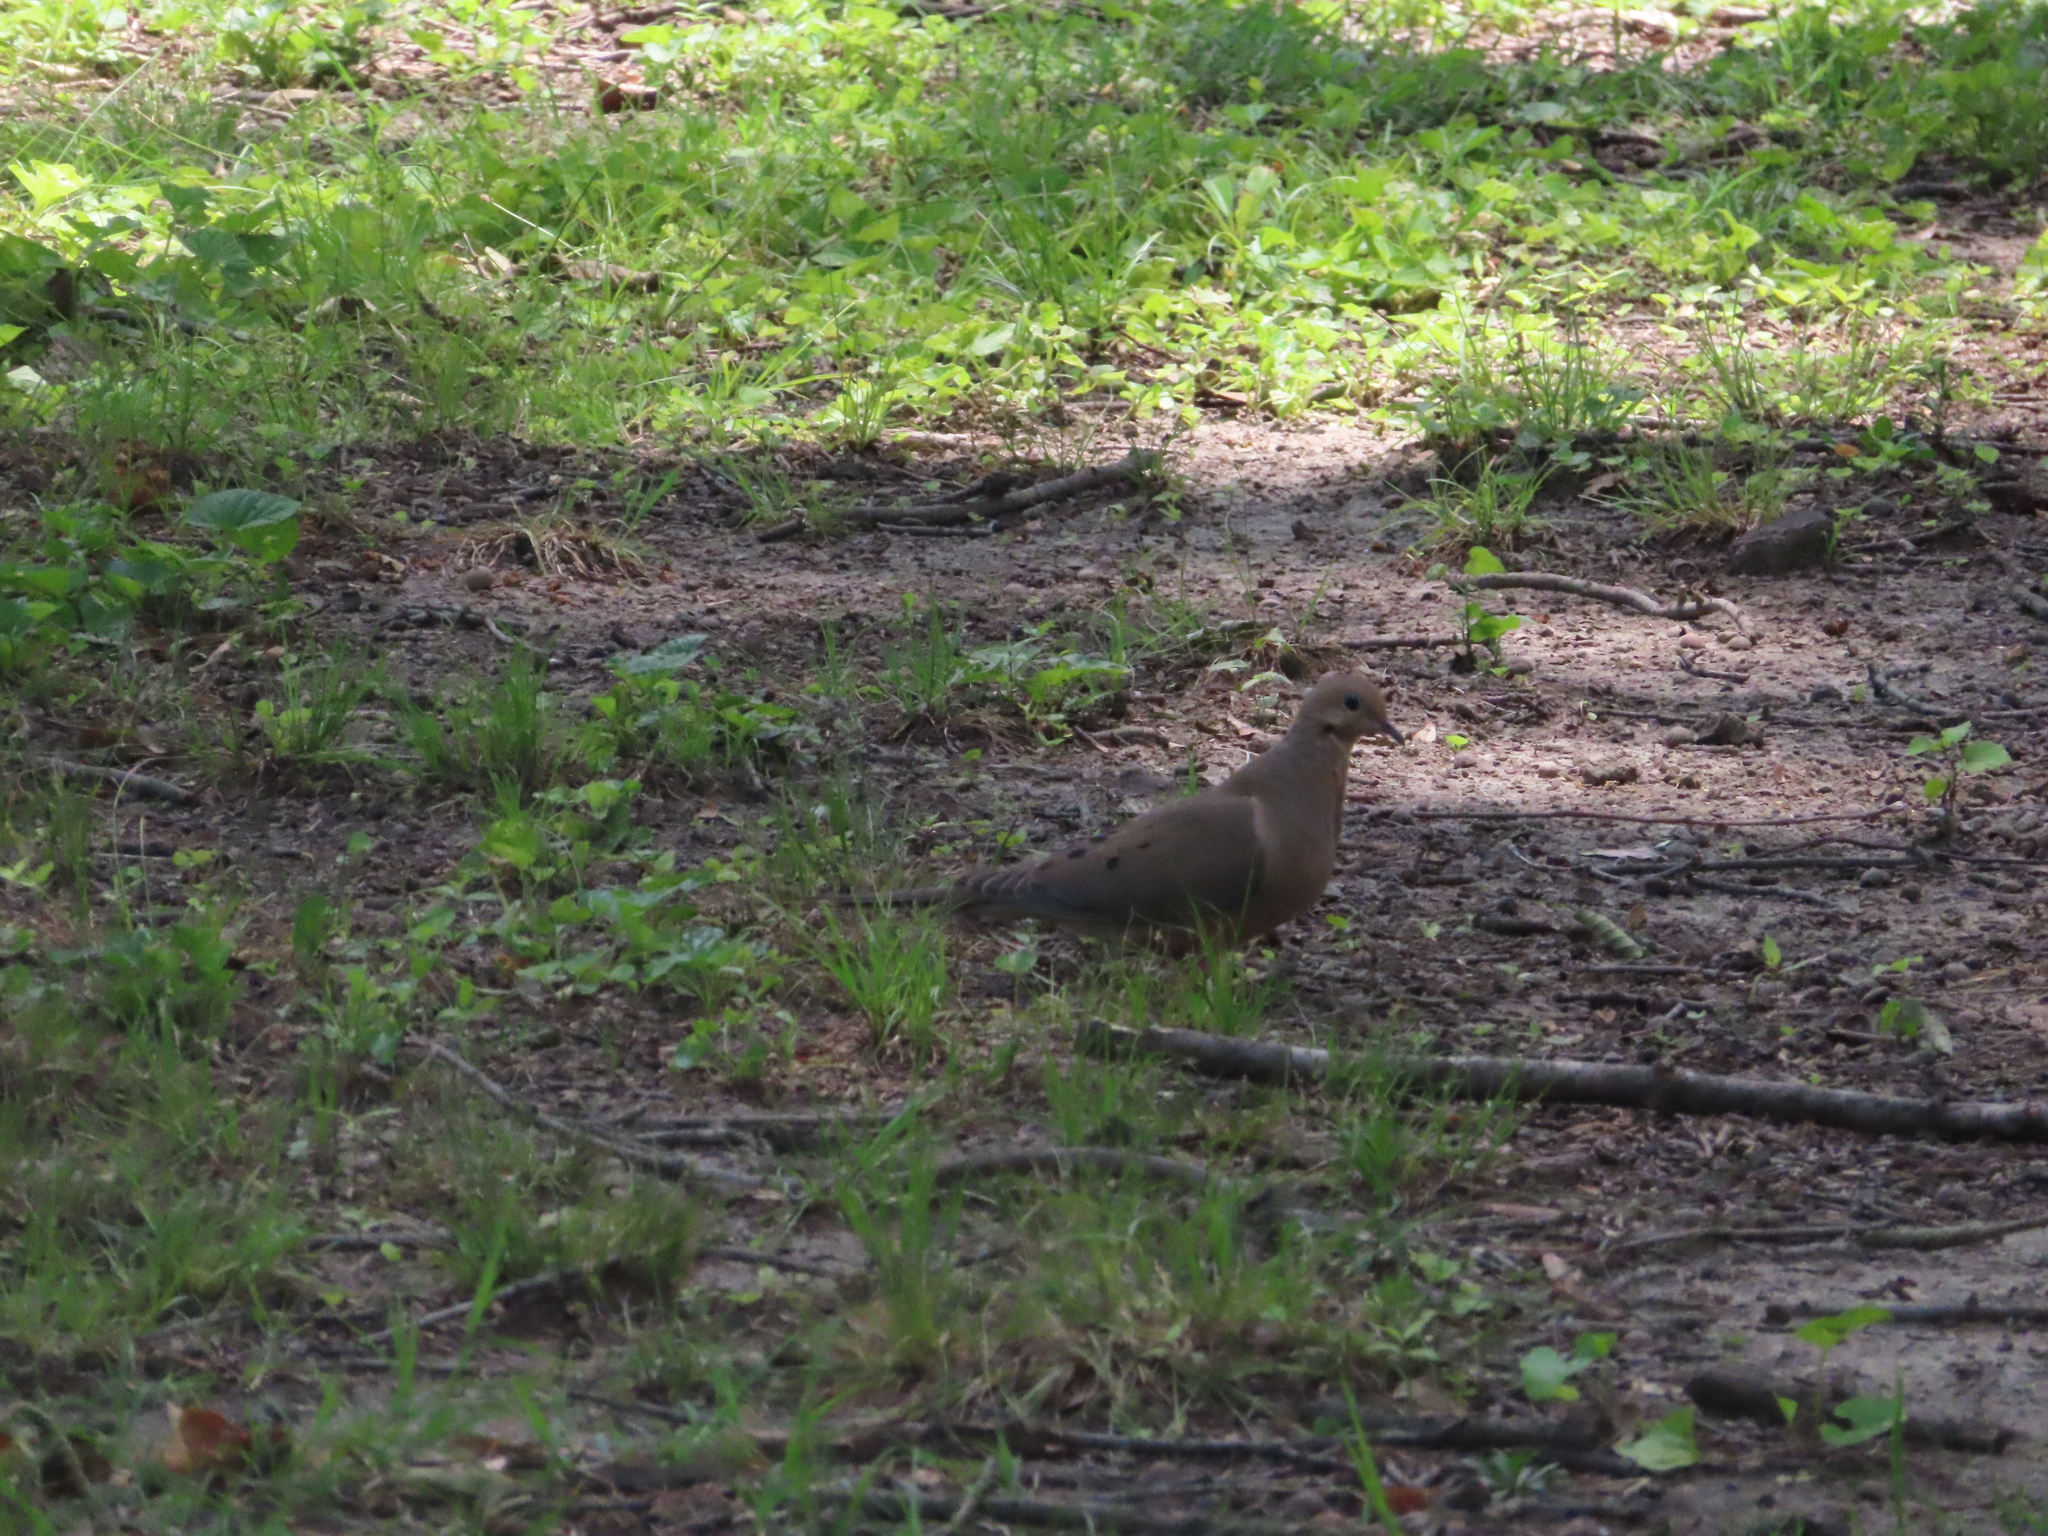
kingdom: Animalia
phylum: Chordata
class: Aves
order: Columbiformes
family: Columbidae
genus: Zenaida
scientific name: Zenaida macroura
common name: Mourning dove
